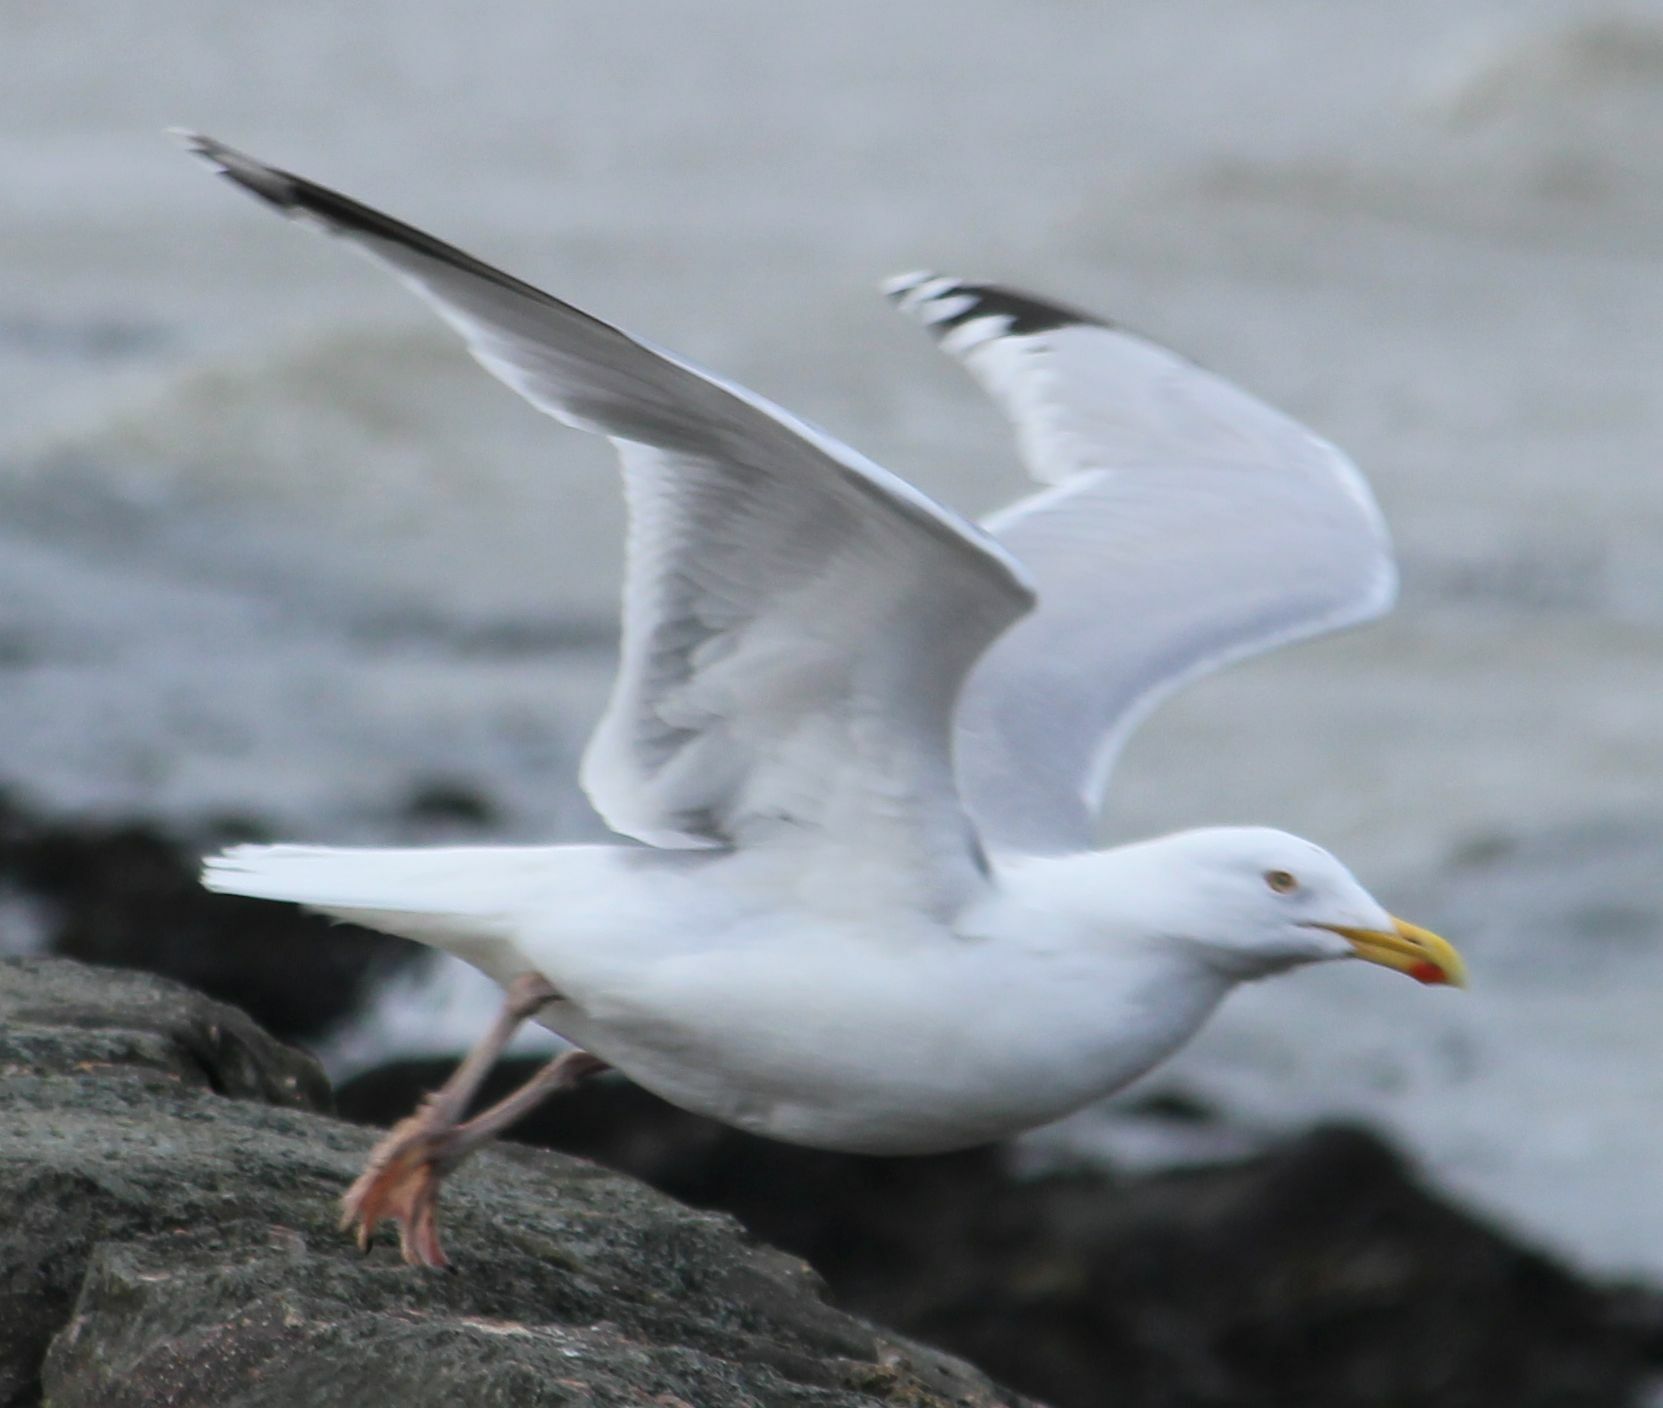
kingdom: Animalia
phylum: Chordata
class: Aves
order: Charadriiformes
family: Laridae
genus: Larus
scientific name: Larus argentatus
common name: Herring gull
